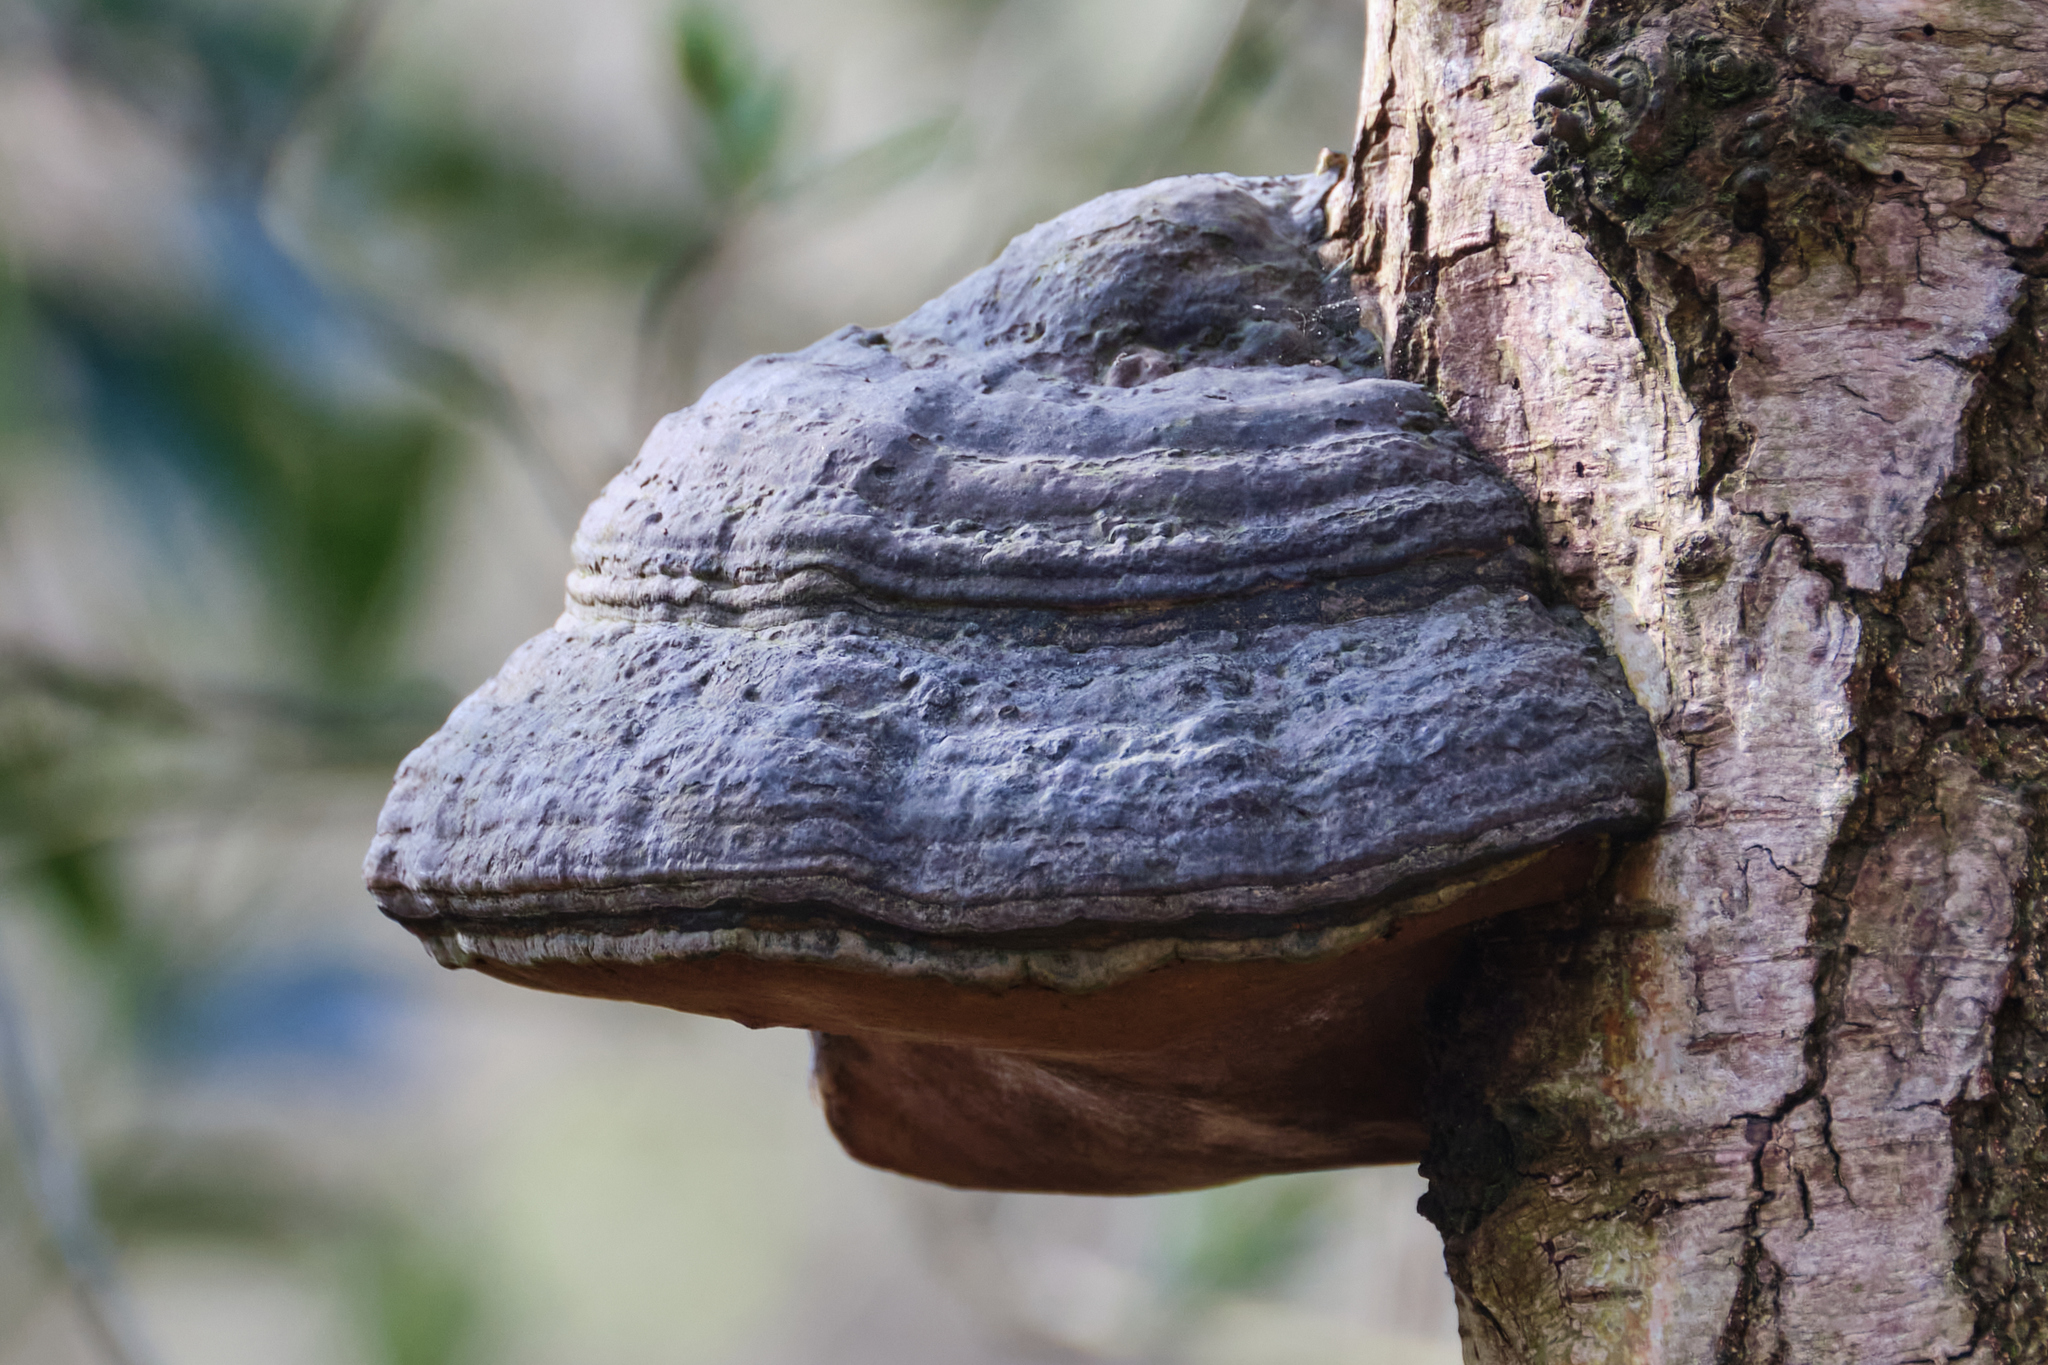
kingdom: Fungi
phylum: Basidiomycota
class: Agaricomycetes
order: Polyporales
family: Polyporaceae
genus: Fomes
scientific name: Fomes fomentarius
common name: Hoof fungus
